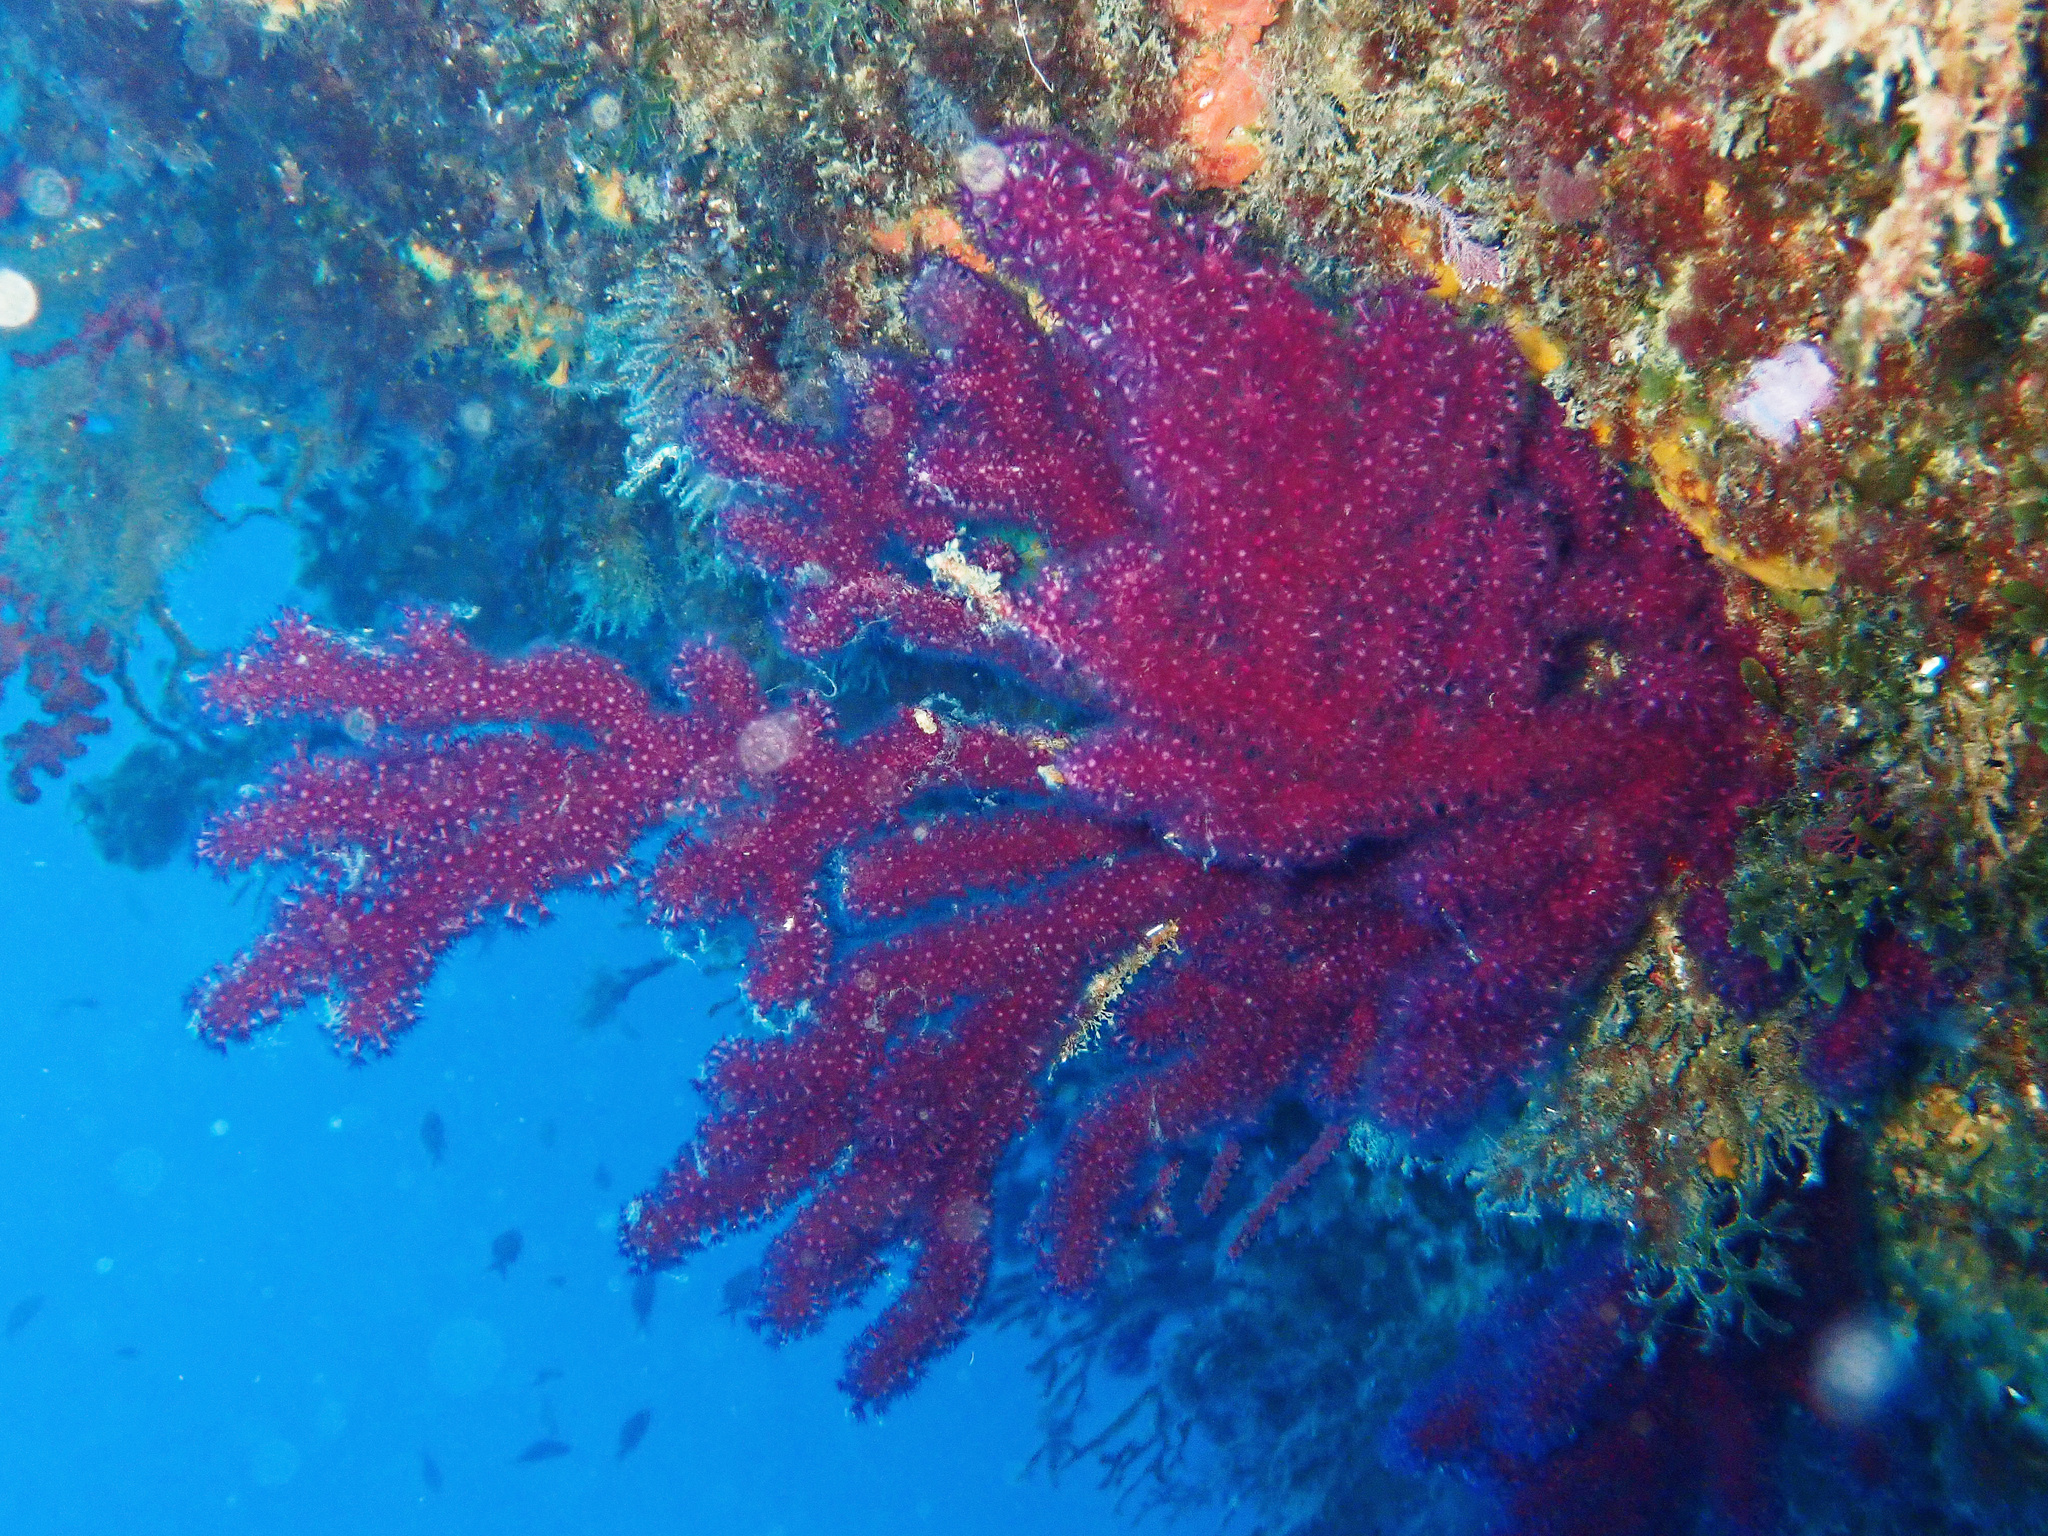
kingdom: Animalia
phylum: Cnidaria
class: Anthozoa
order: Malacalcyonacea
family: Paramuriceidae
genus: Paramuricea
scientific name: Paramuricea clavata
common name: Violescent sea-whip
